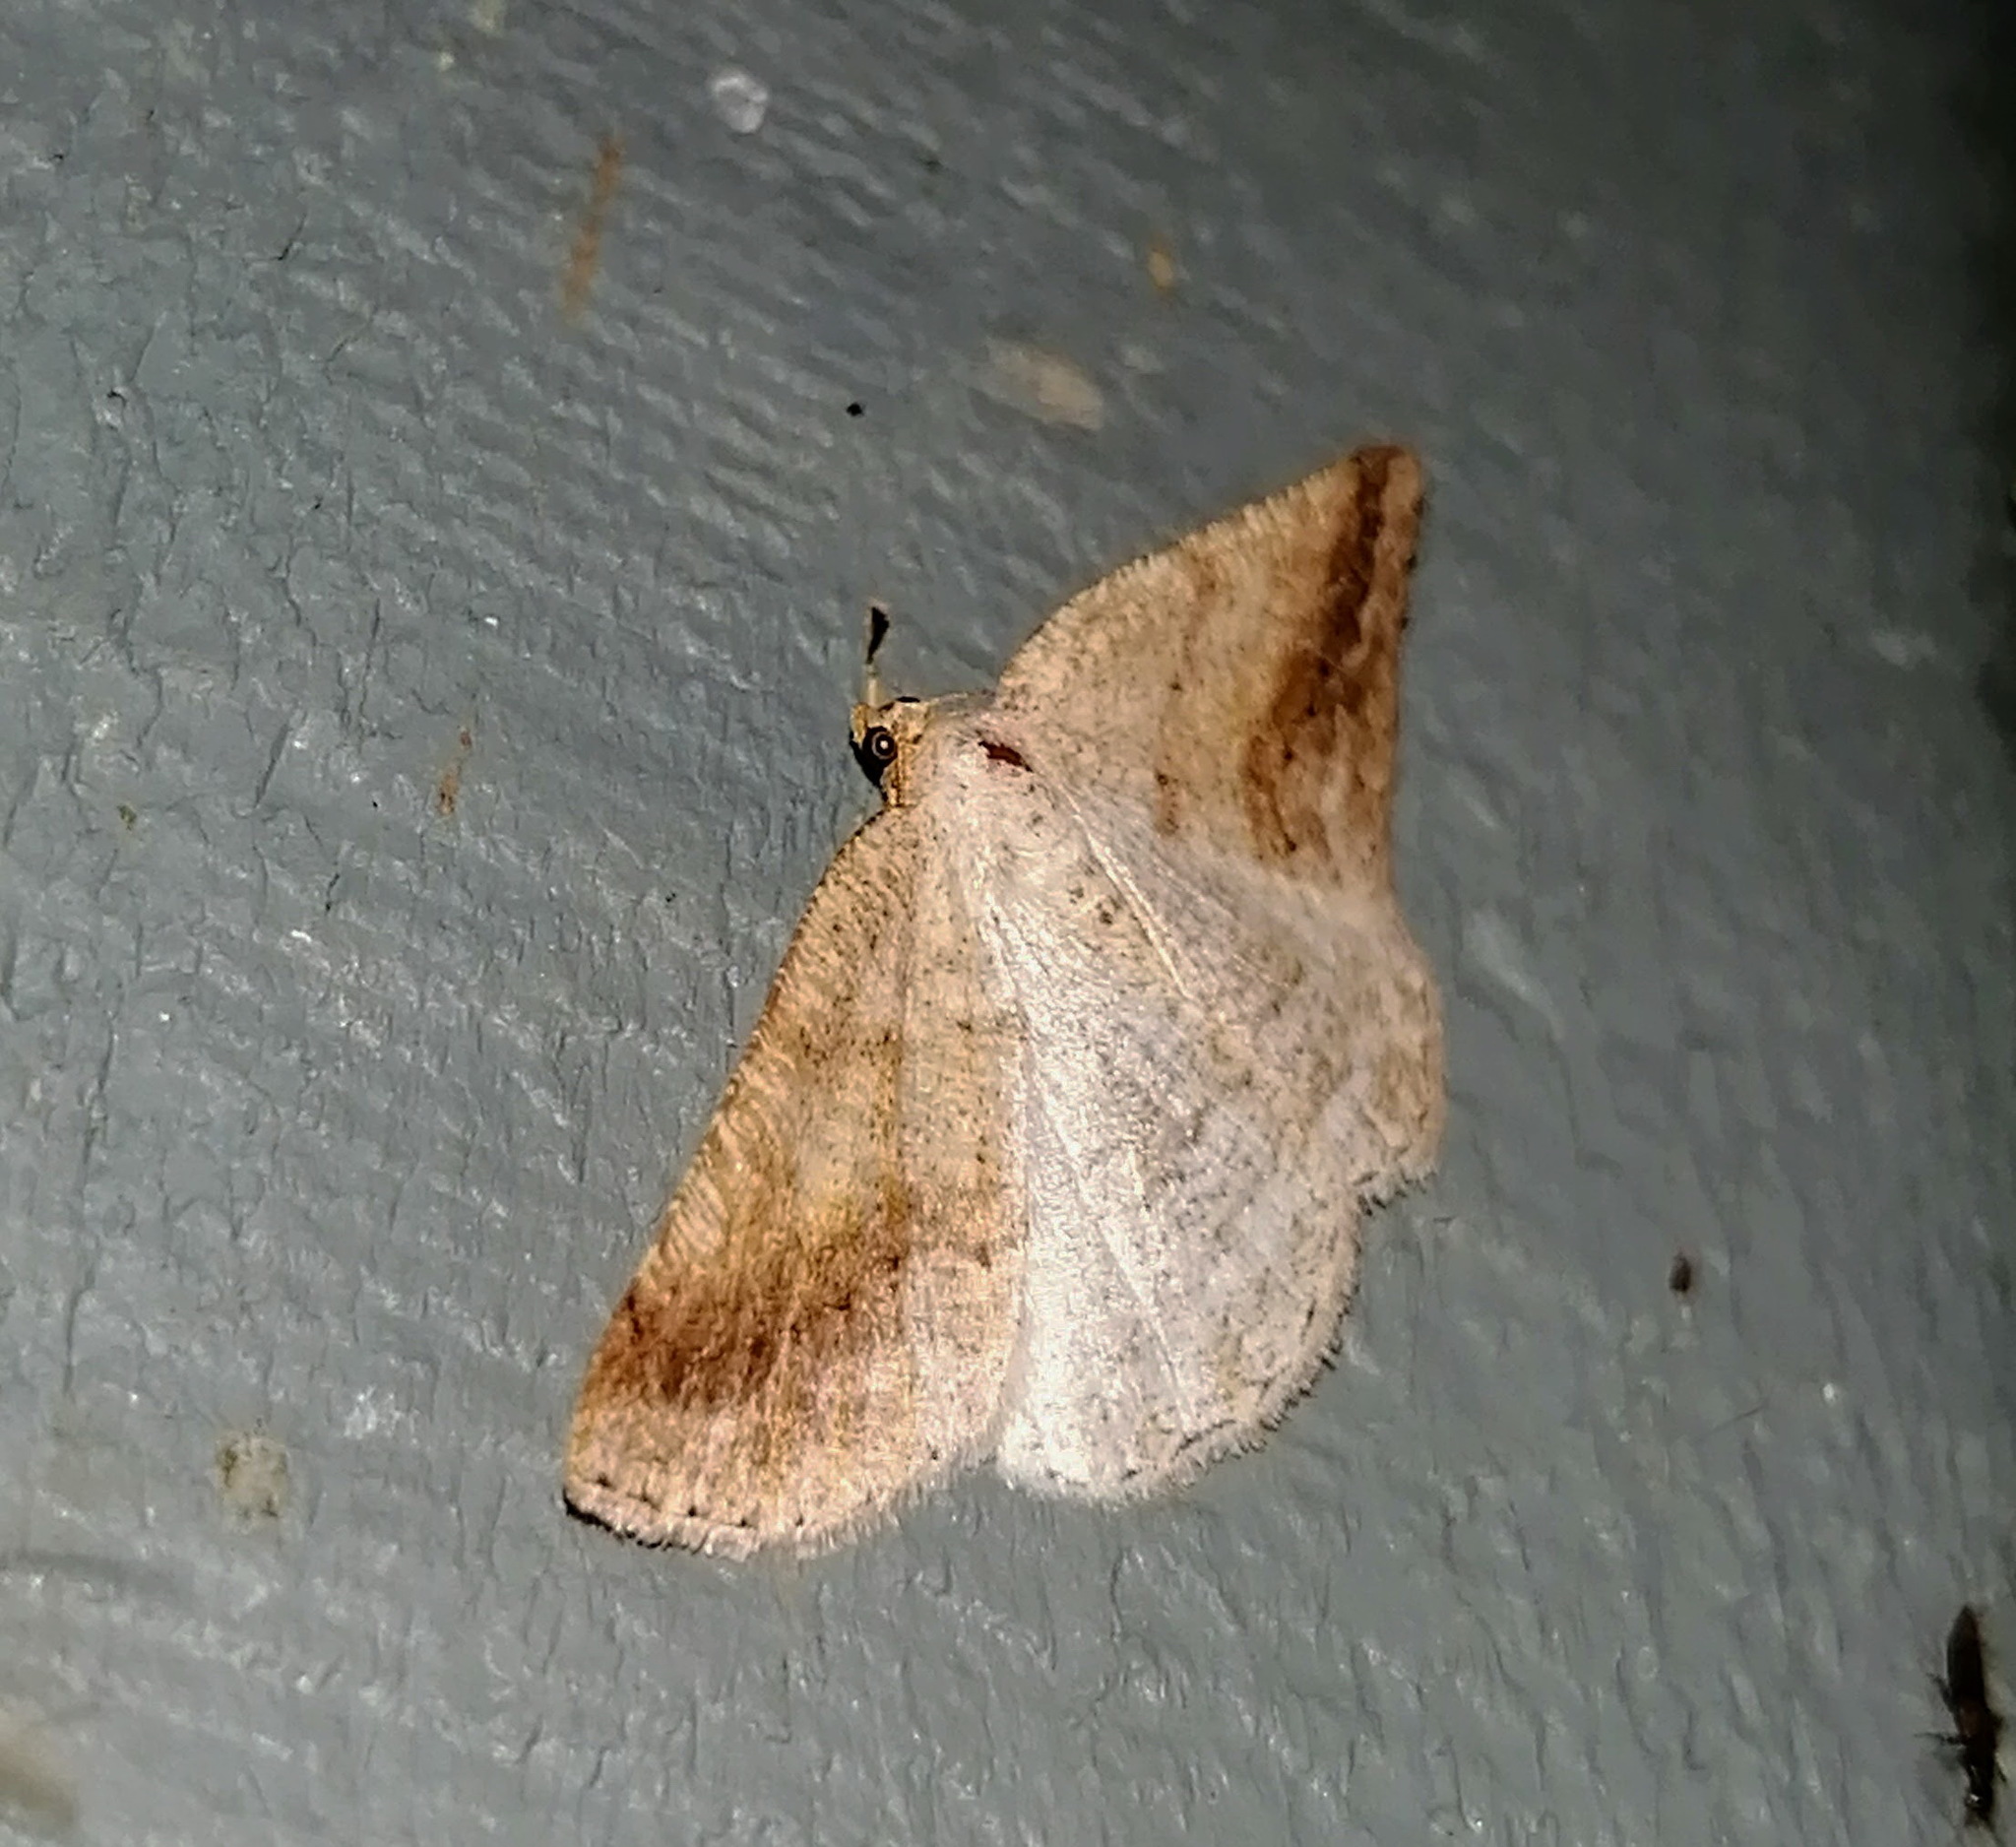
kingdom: Animalia
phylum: Arthropoda
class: Insecta
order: Lepidoptera
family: Geometridae
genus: Tacparia
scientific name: Tacparia detersata
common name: Pale alder moth
